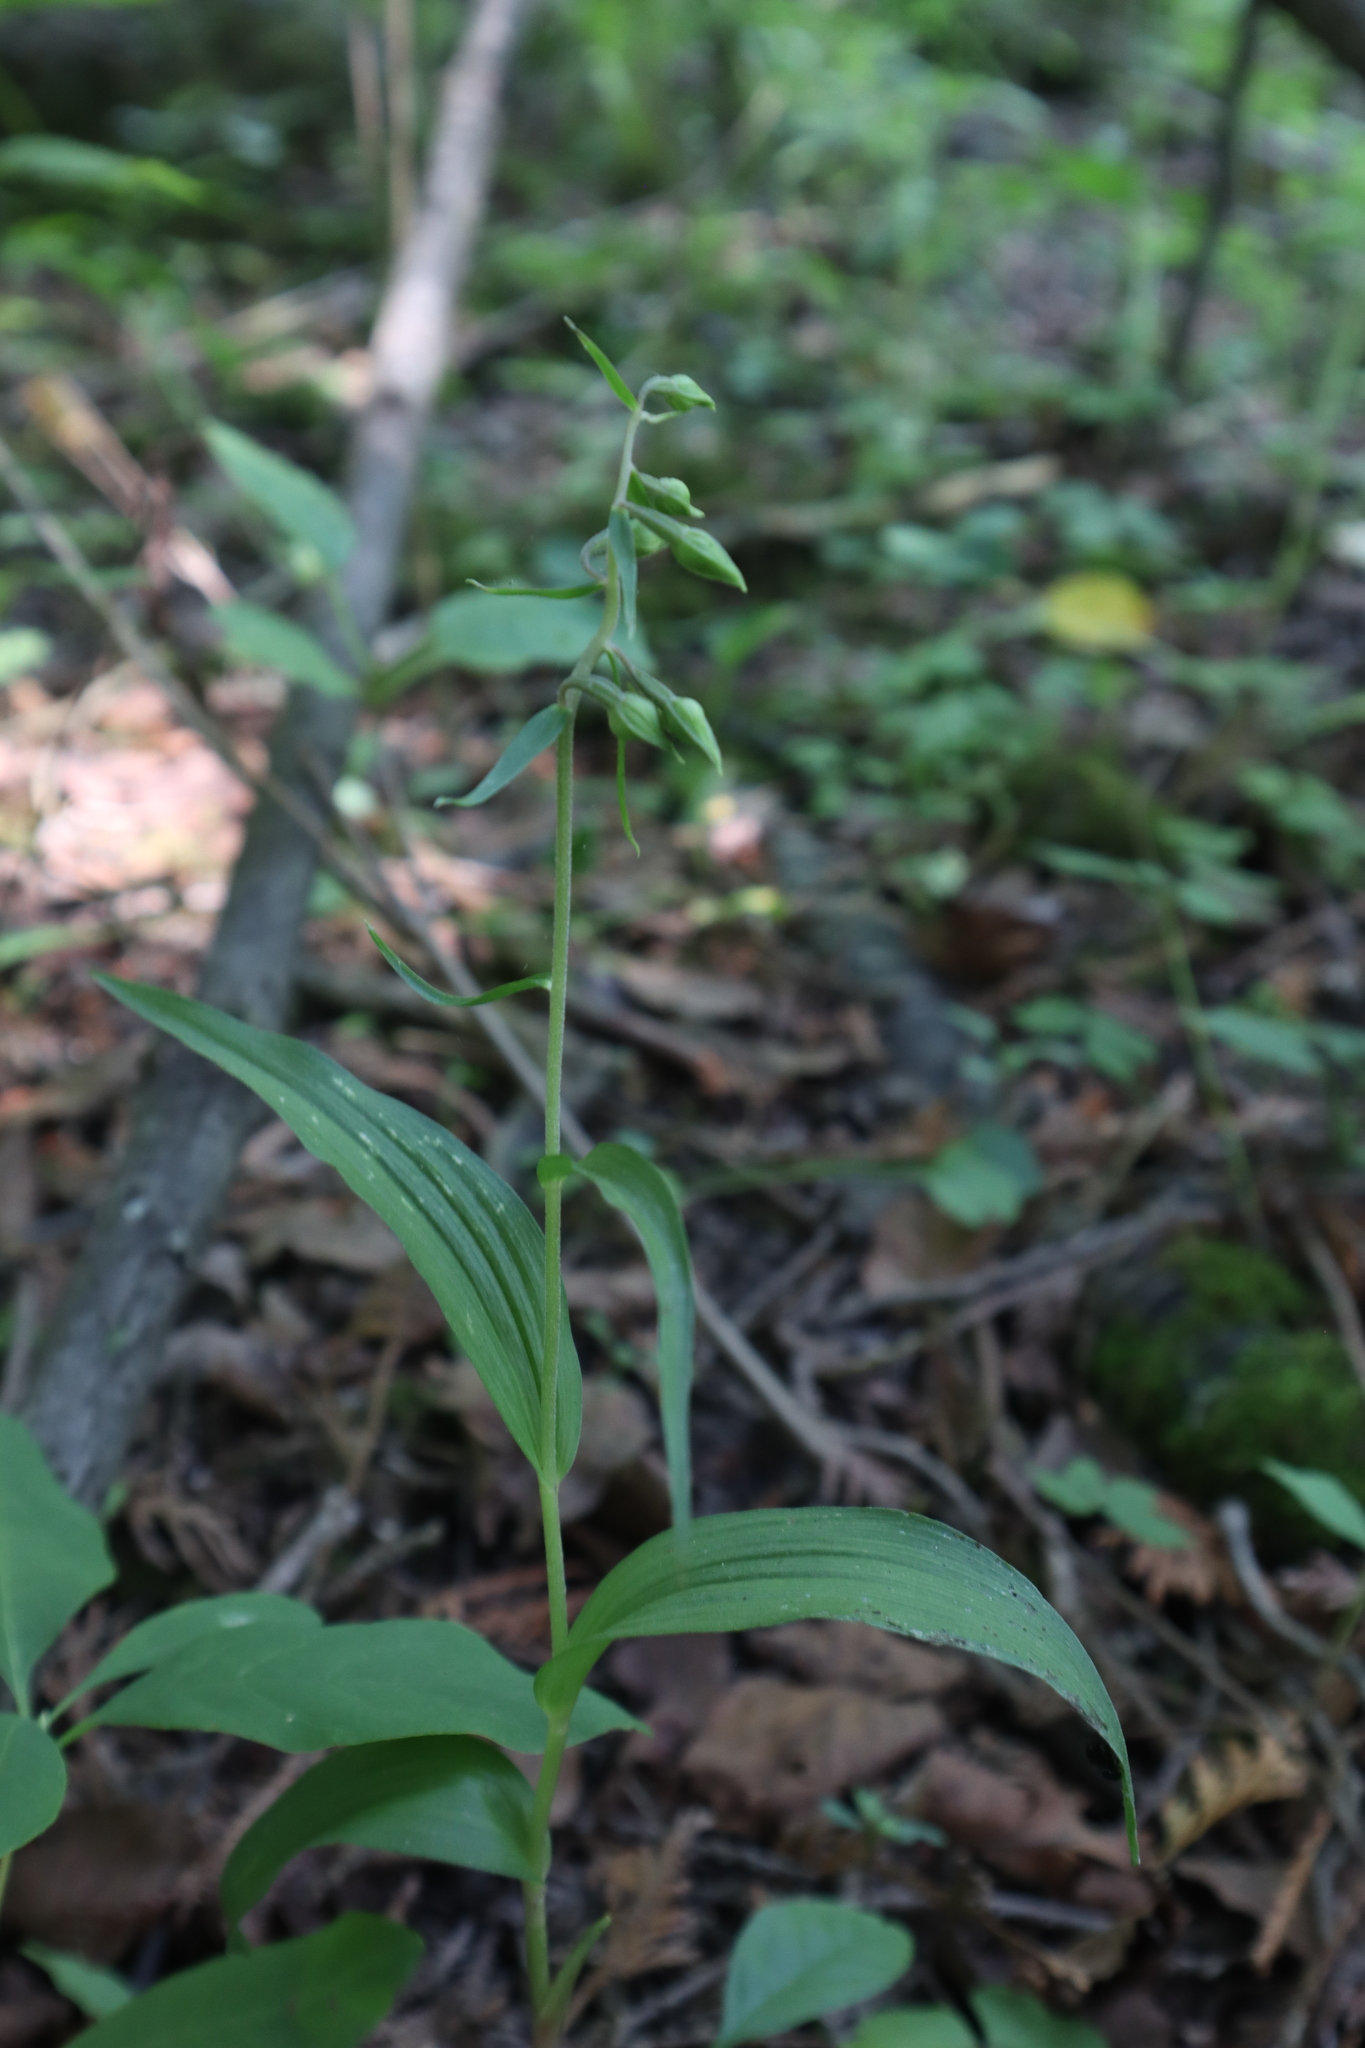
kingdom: Plantae
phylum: Tracheophyta
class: Liliopsida
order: Asparagales
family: Orchidaceae
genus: Epipactis
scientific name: Epipactis helleborine
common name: Broad-leaved helleborine
